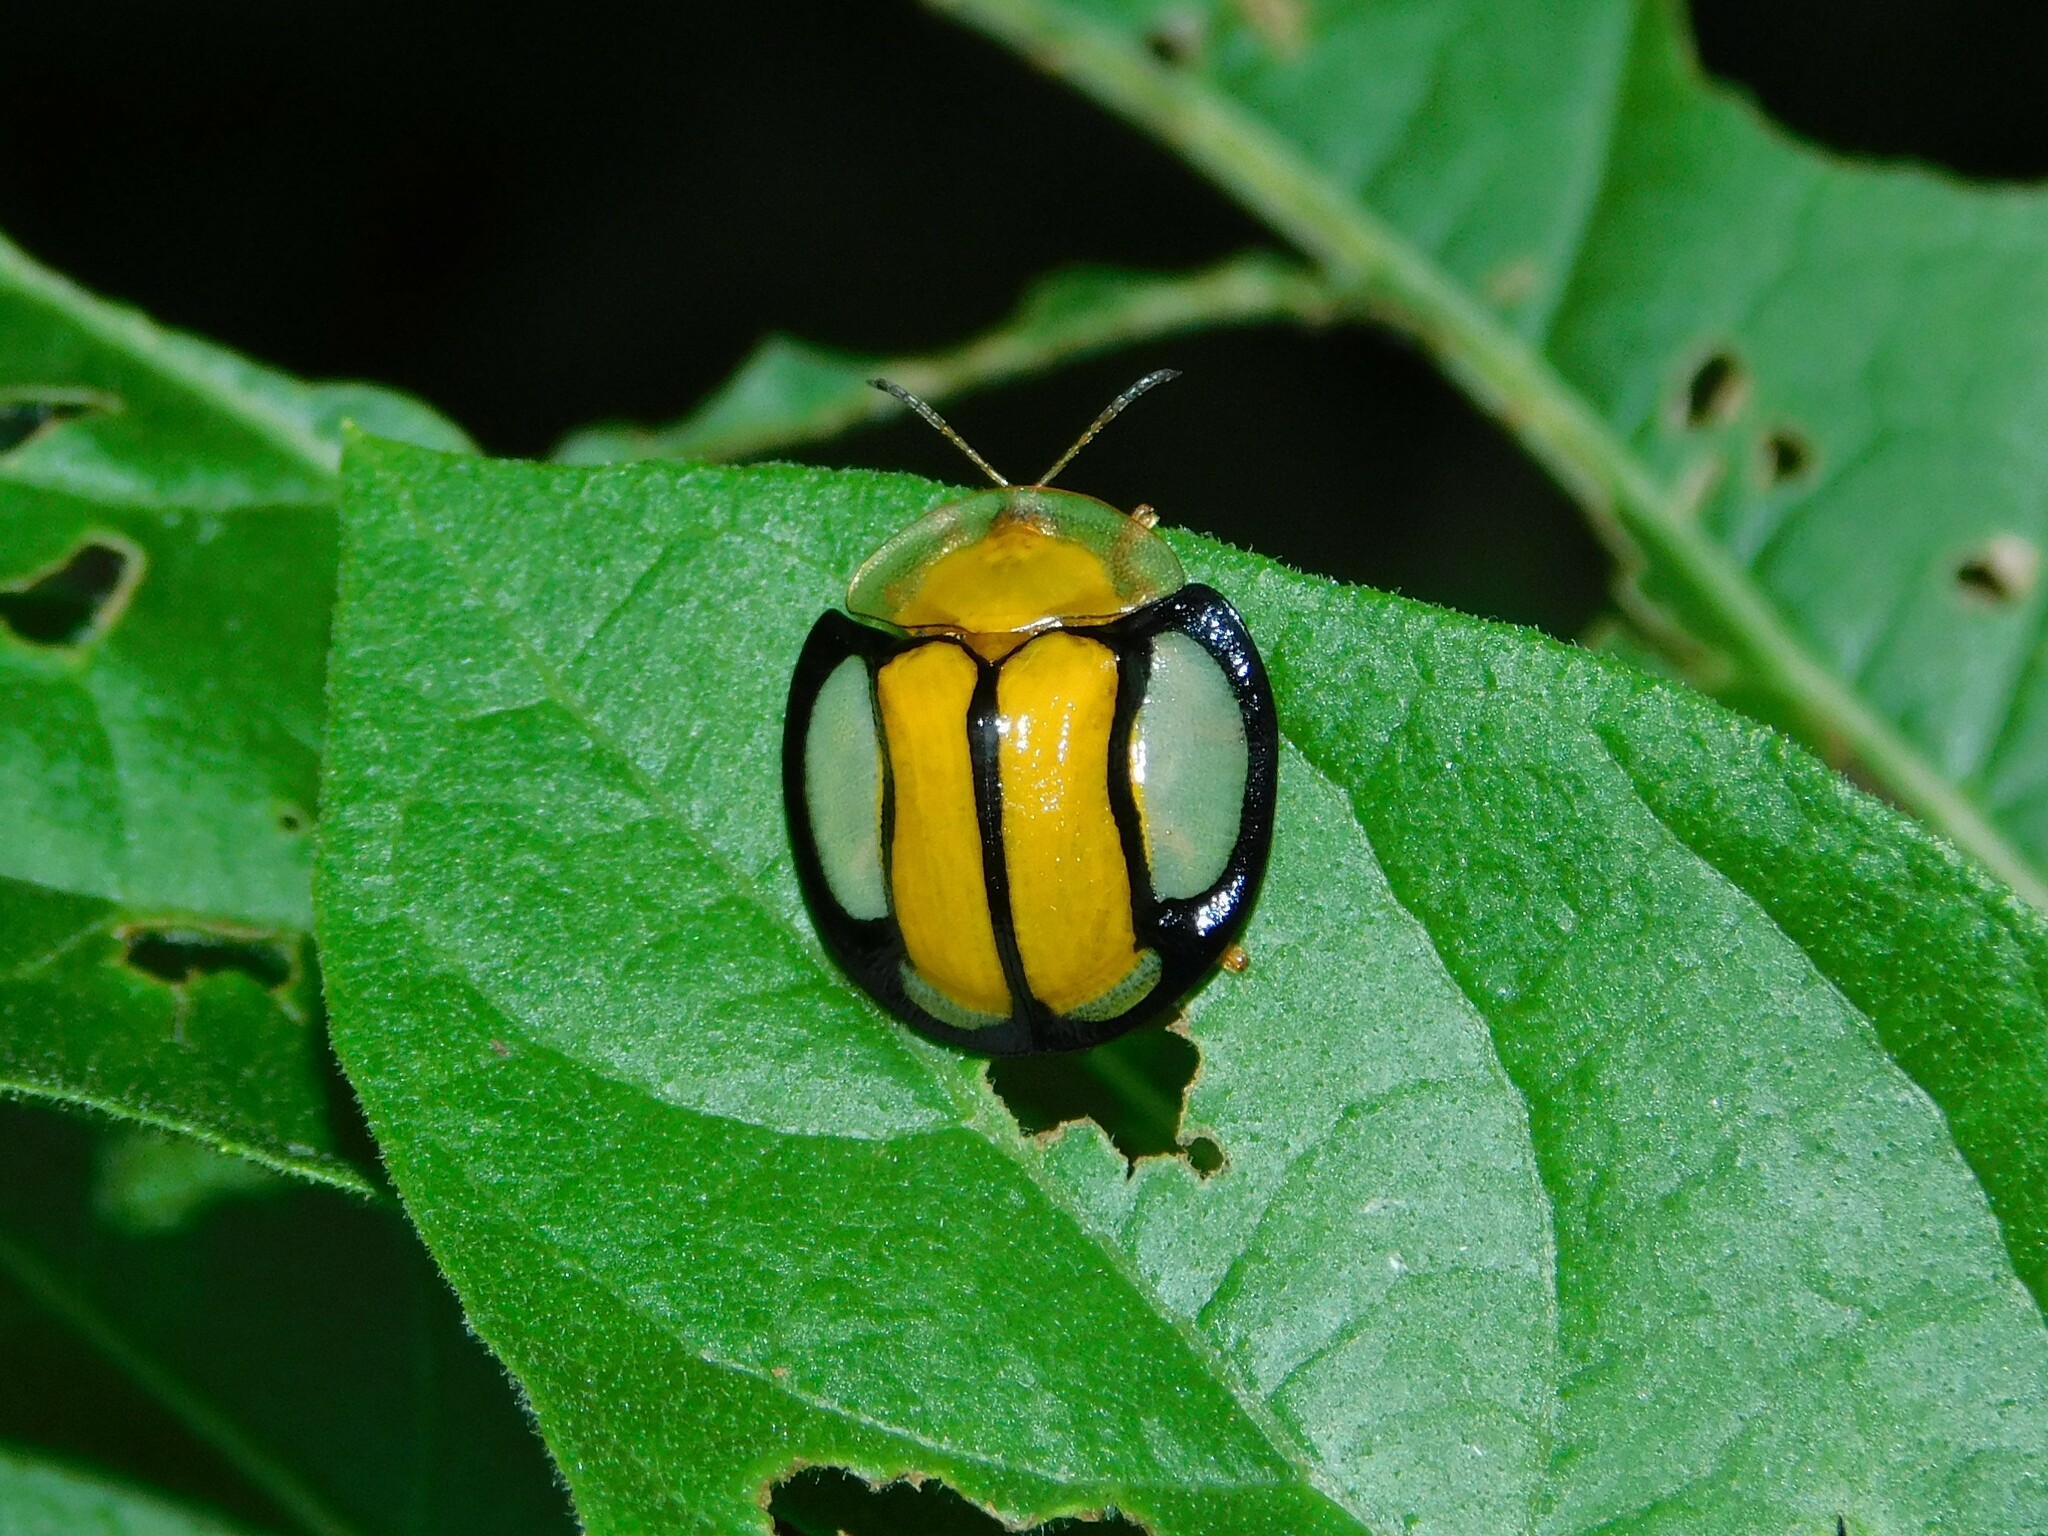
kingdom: Animalia
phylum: Arthropoda
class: Insecta
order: Coleoptera
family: Chrysomelidae
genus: Aspidimorpha
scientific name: Aspidimorpha sessarum
